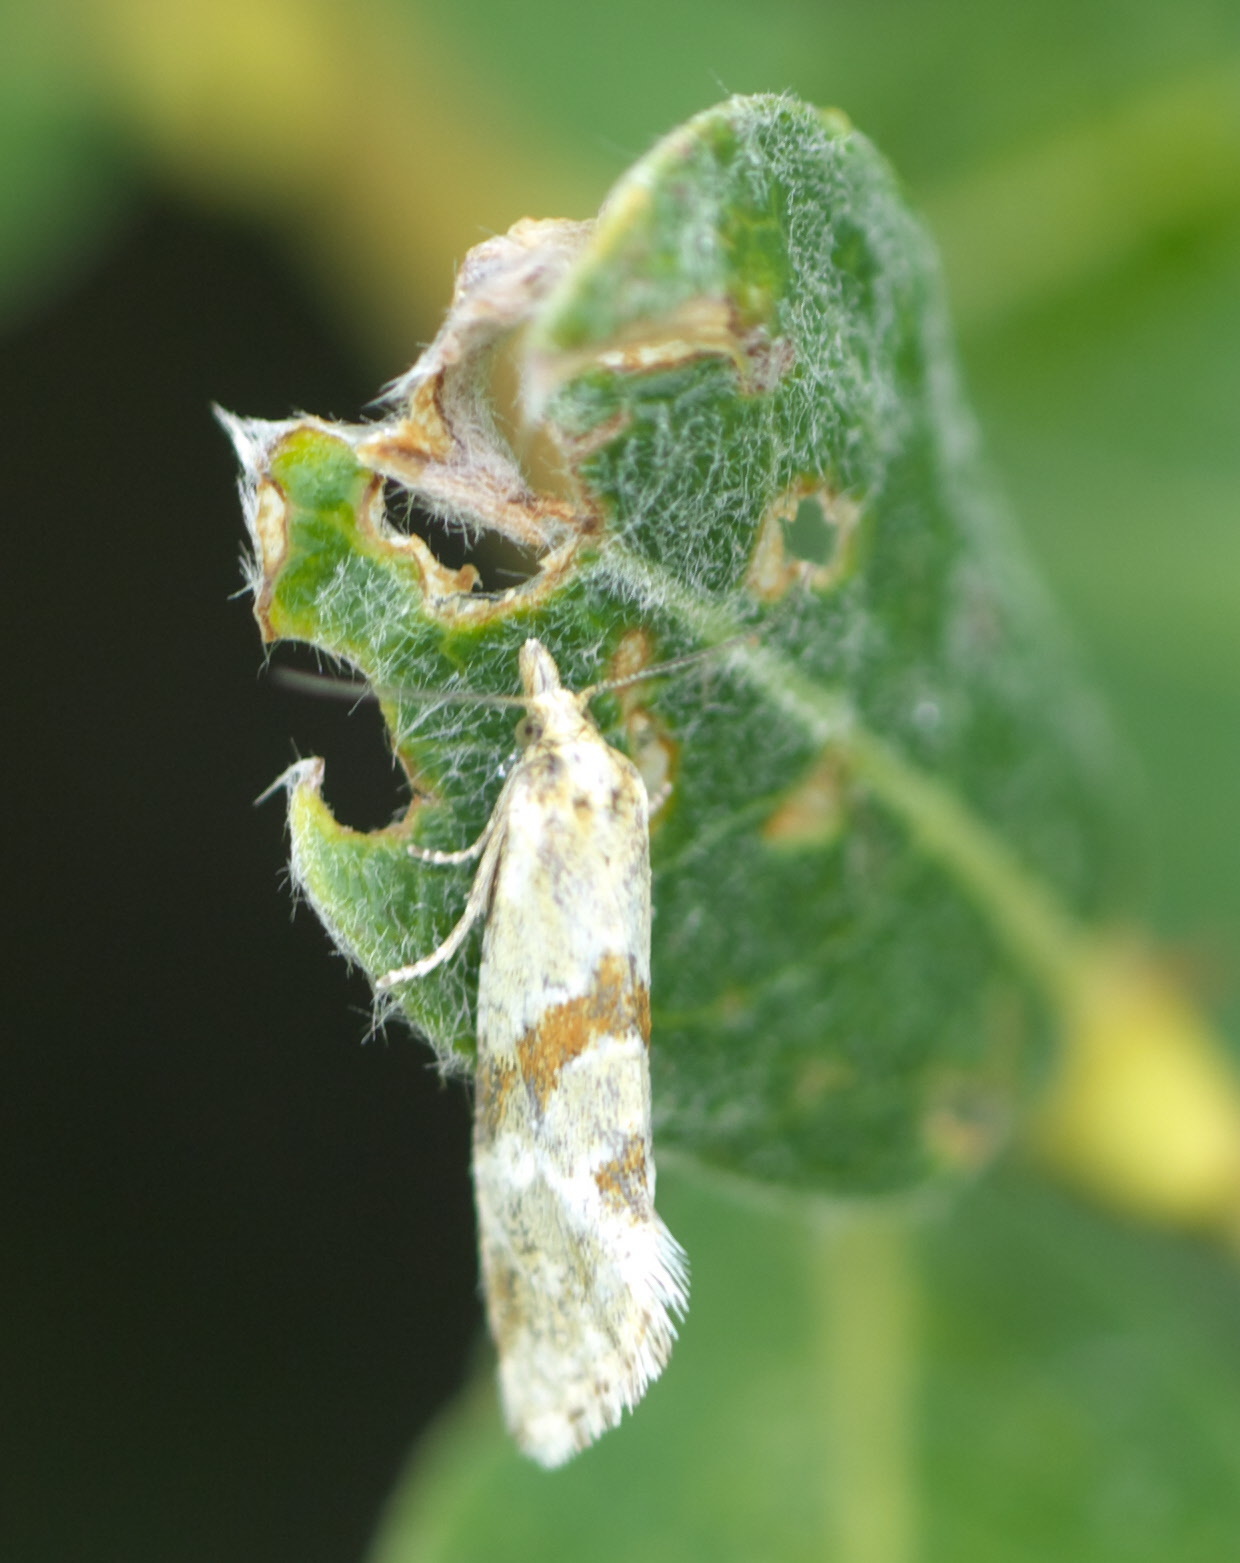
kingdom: Animalia
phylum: Arthropoda
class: Insecta
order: Lepidoptera
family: Tortricidae
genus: Aethes
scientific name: Aethes smeathmanniana
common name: Yarrow conch
